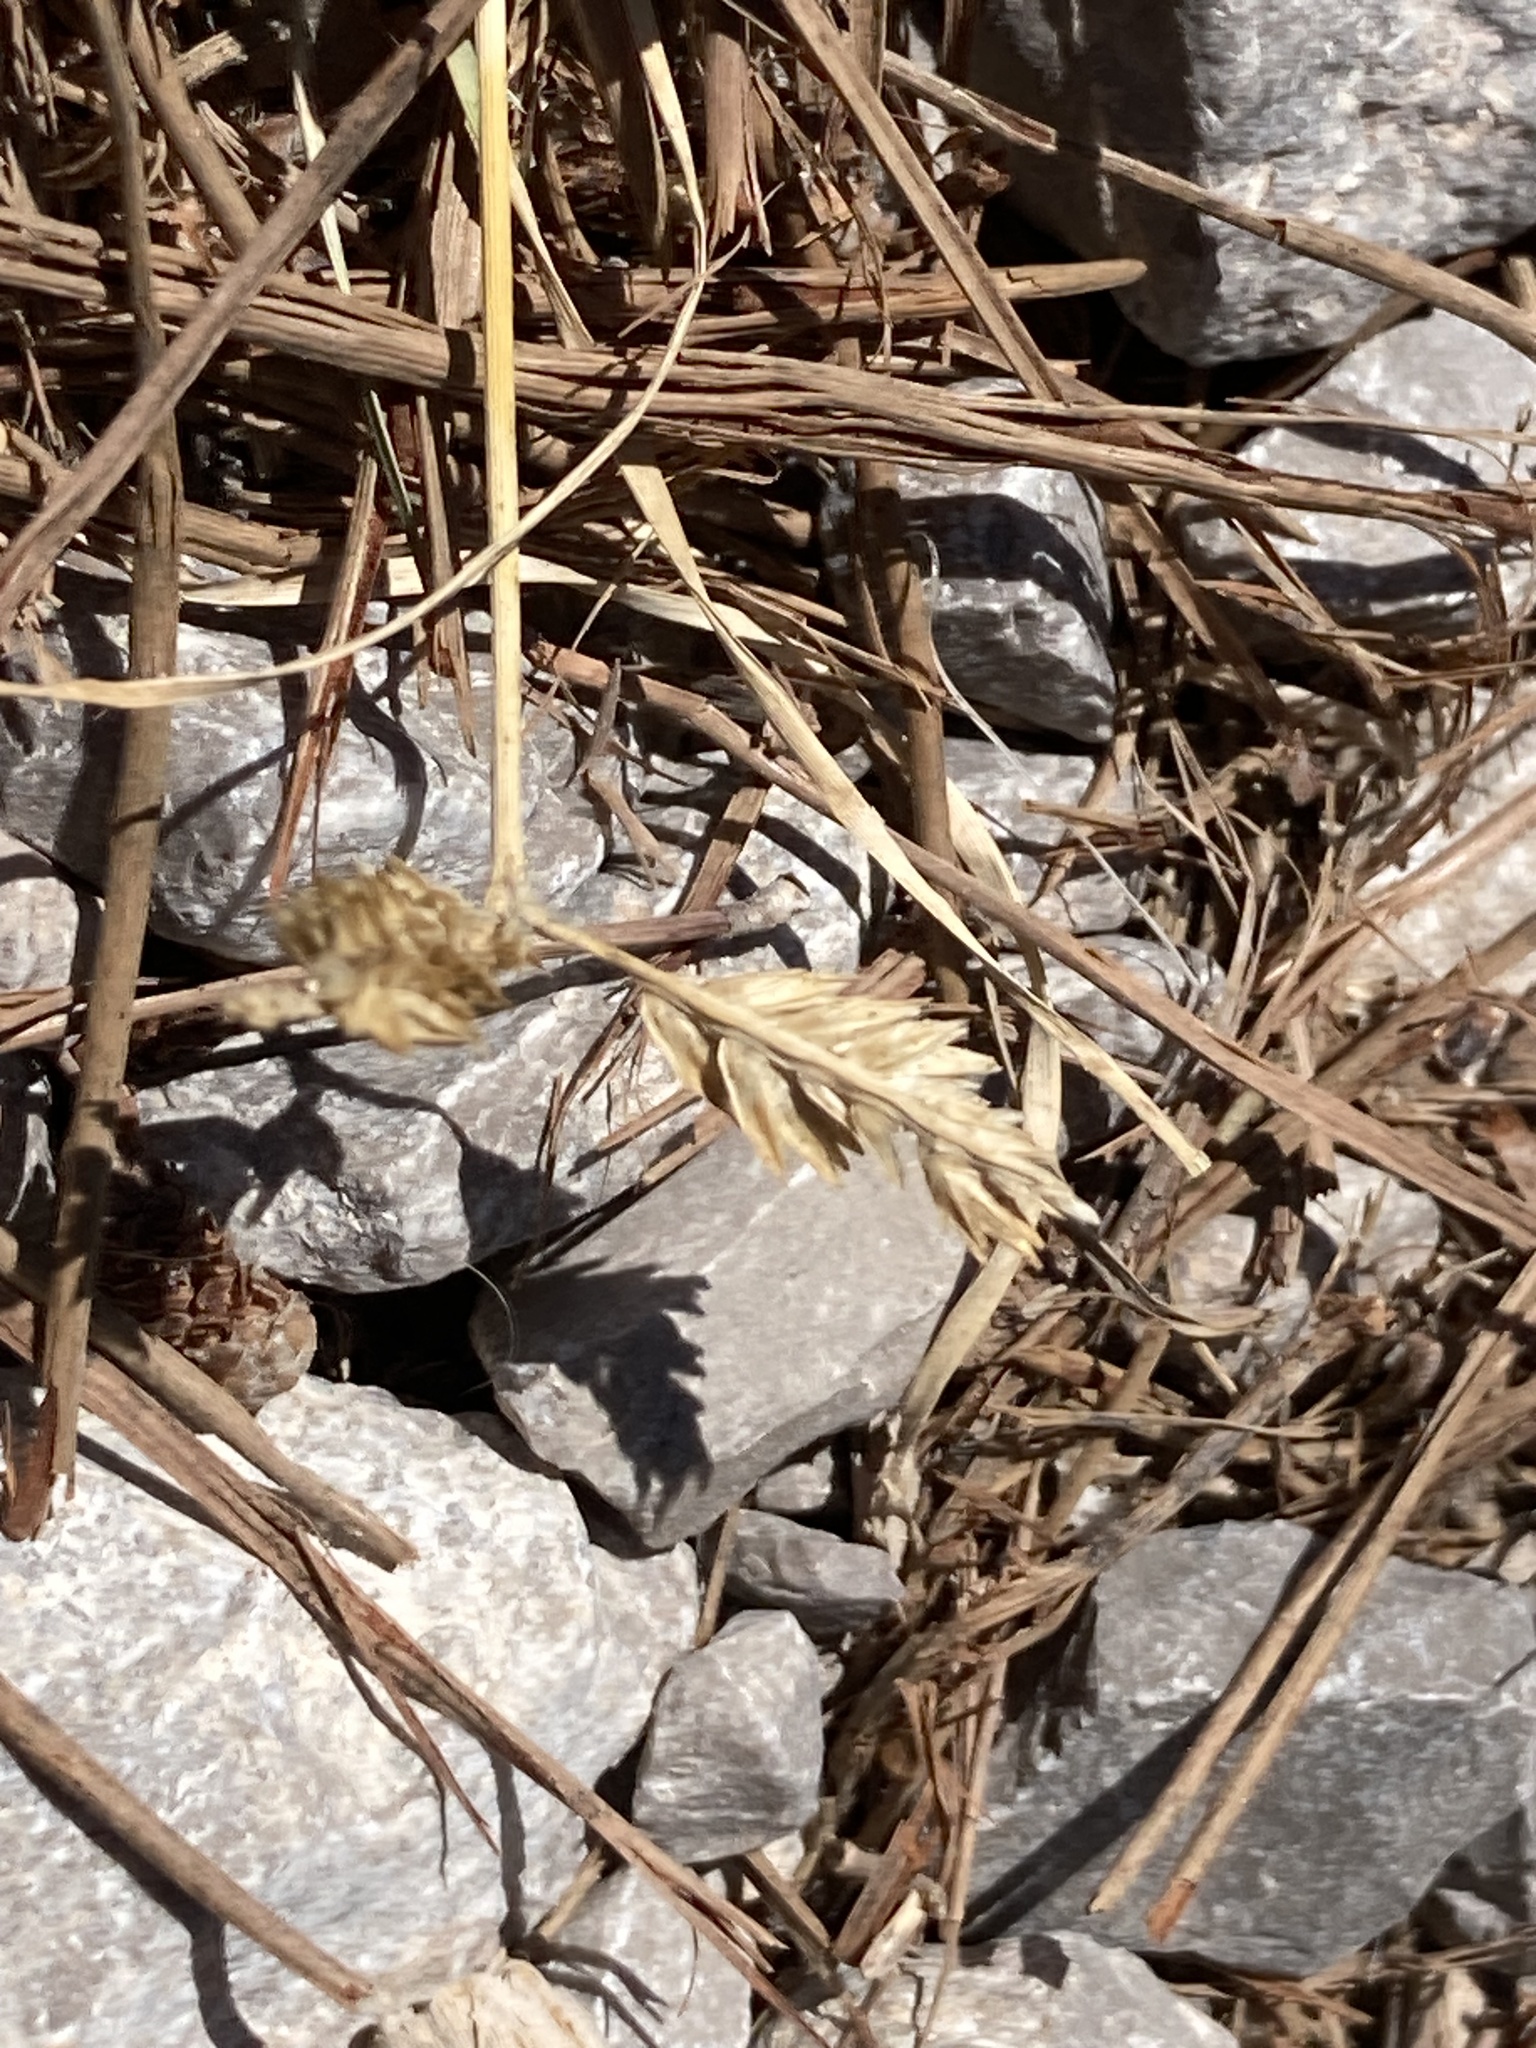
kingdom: Plantae
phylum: Tracheophyta
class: Liliopsida
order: Poales
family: Poaceae
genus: Eleusine
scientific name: Eleusine tristachya
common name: American yard-grass
